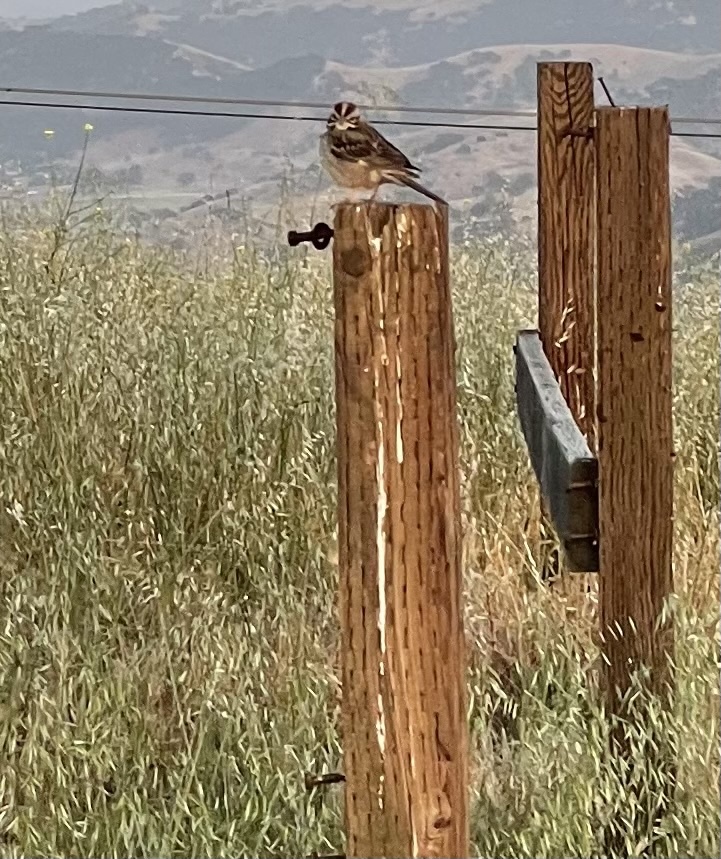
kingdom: Animalia
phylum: Chordata
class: Aves
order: Passeriformes
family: Passerellidae
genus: Chondestes
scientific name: Chondestes grammacus
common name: Lark sparrow
